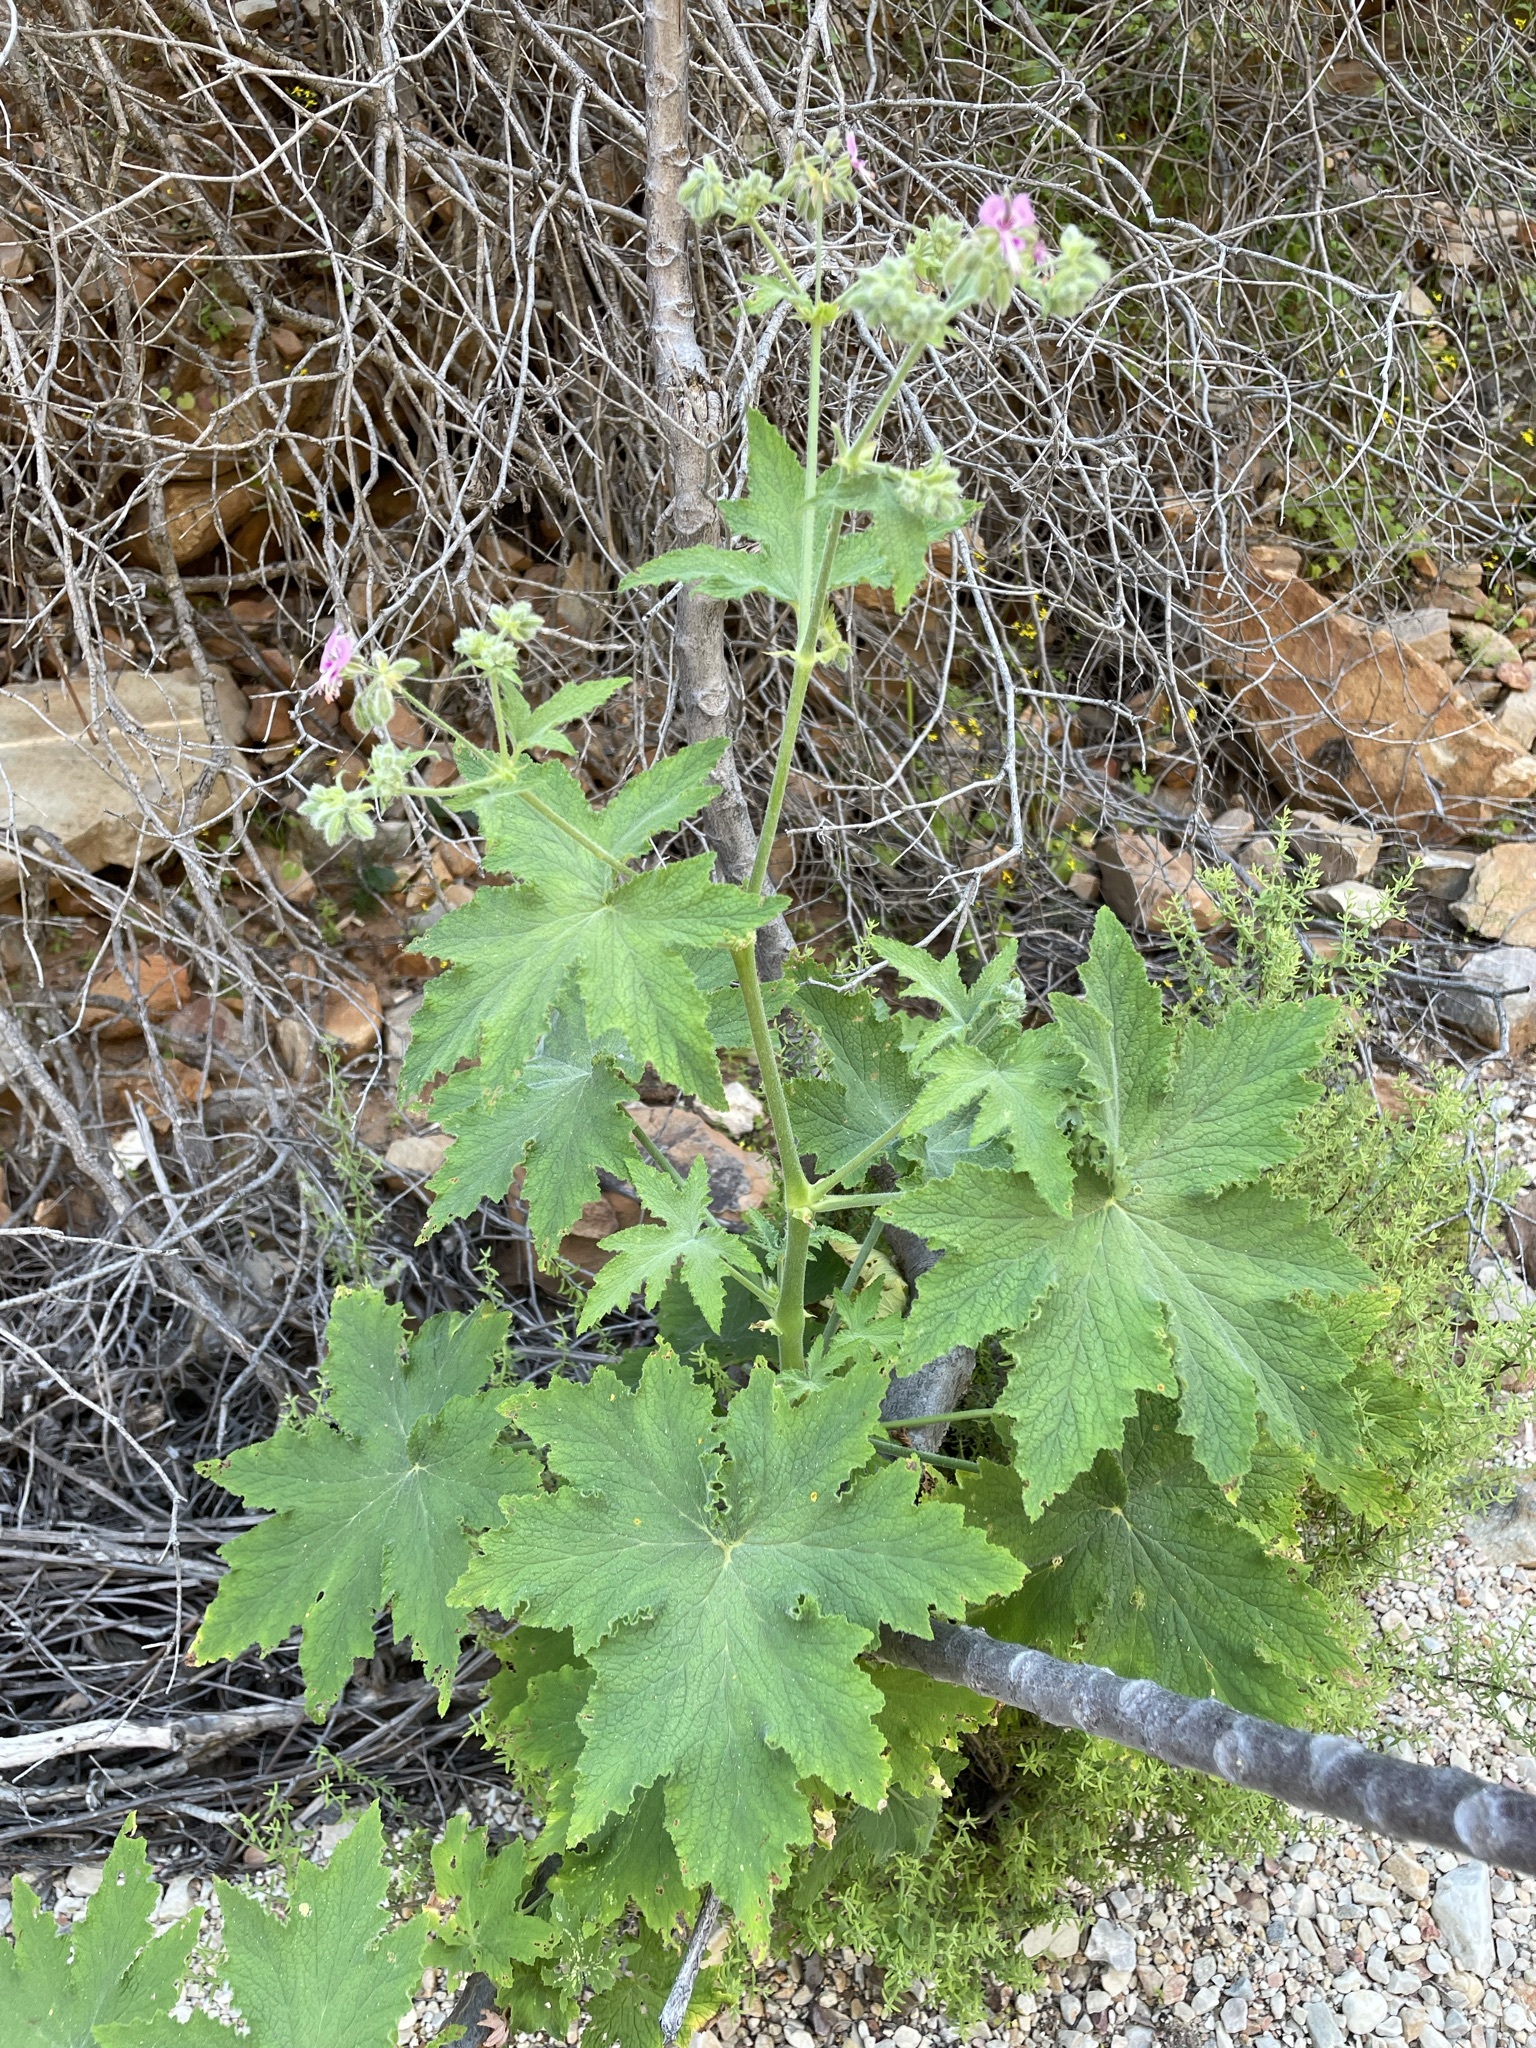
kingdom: Plantae
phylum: Tracheophyta
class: Magnoliopsida
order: Geraniales
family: Geraniaceae
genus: Pelargonium
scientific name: Pelargonium hispidum
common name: Hispid pelargonium
